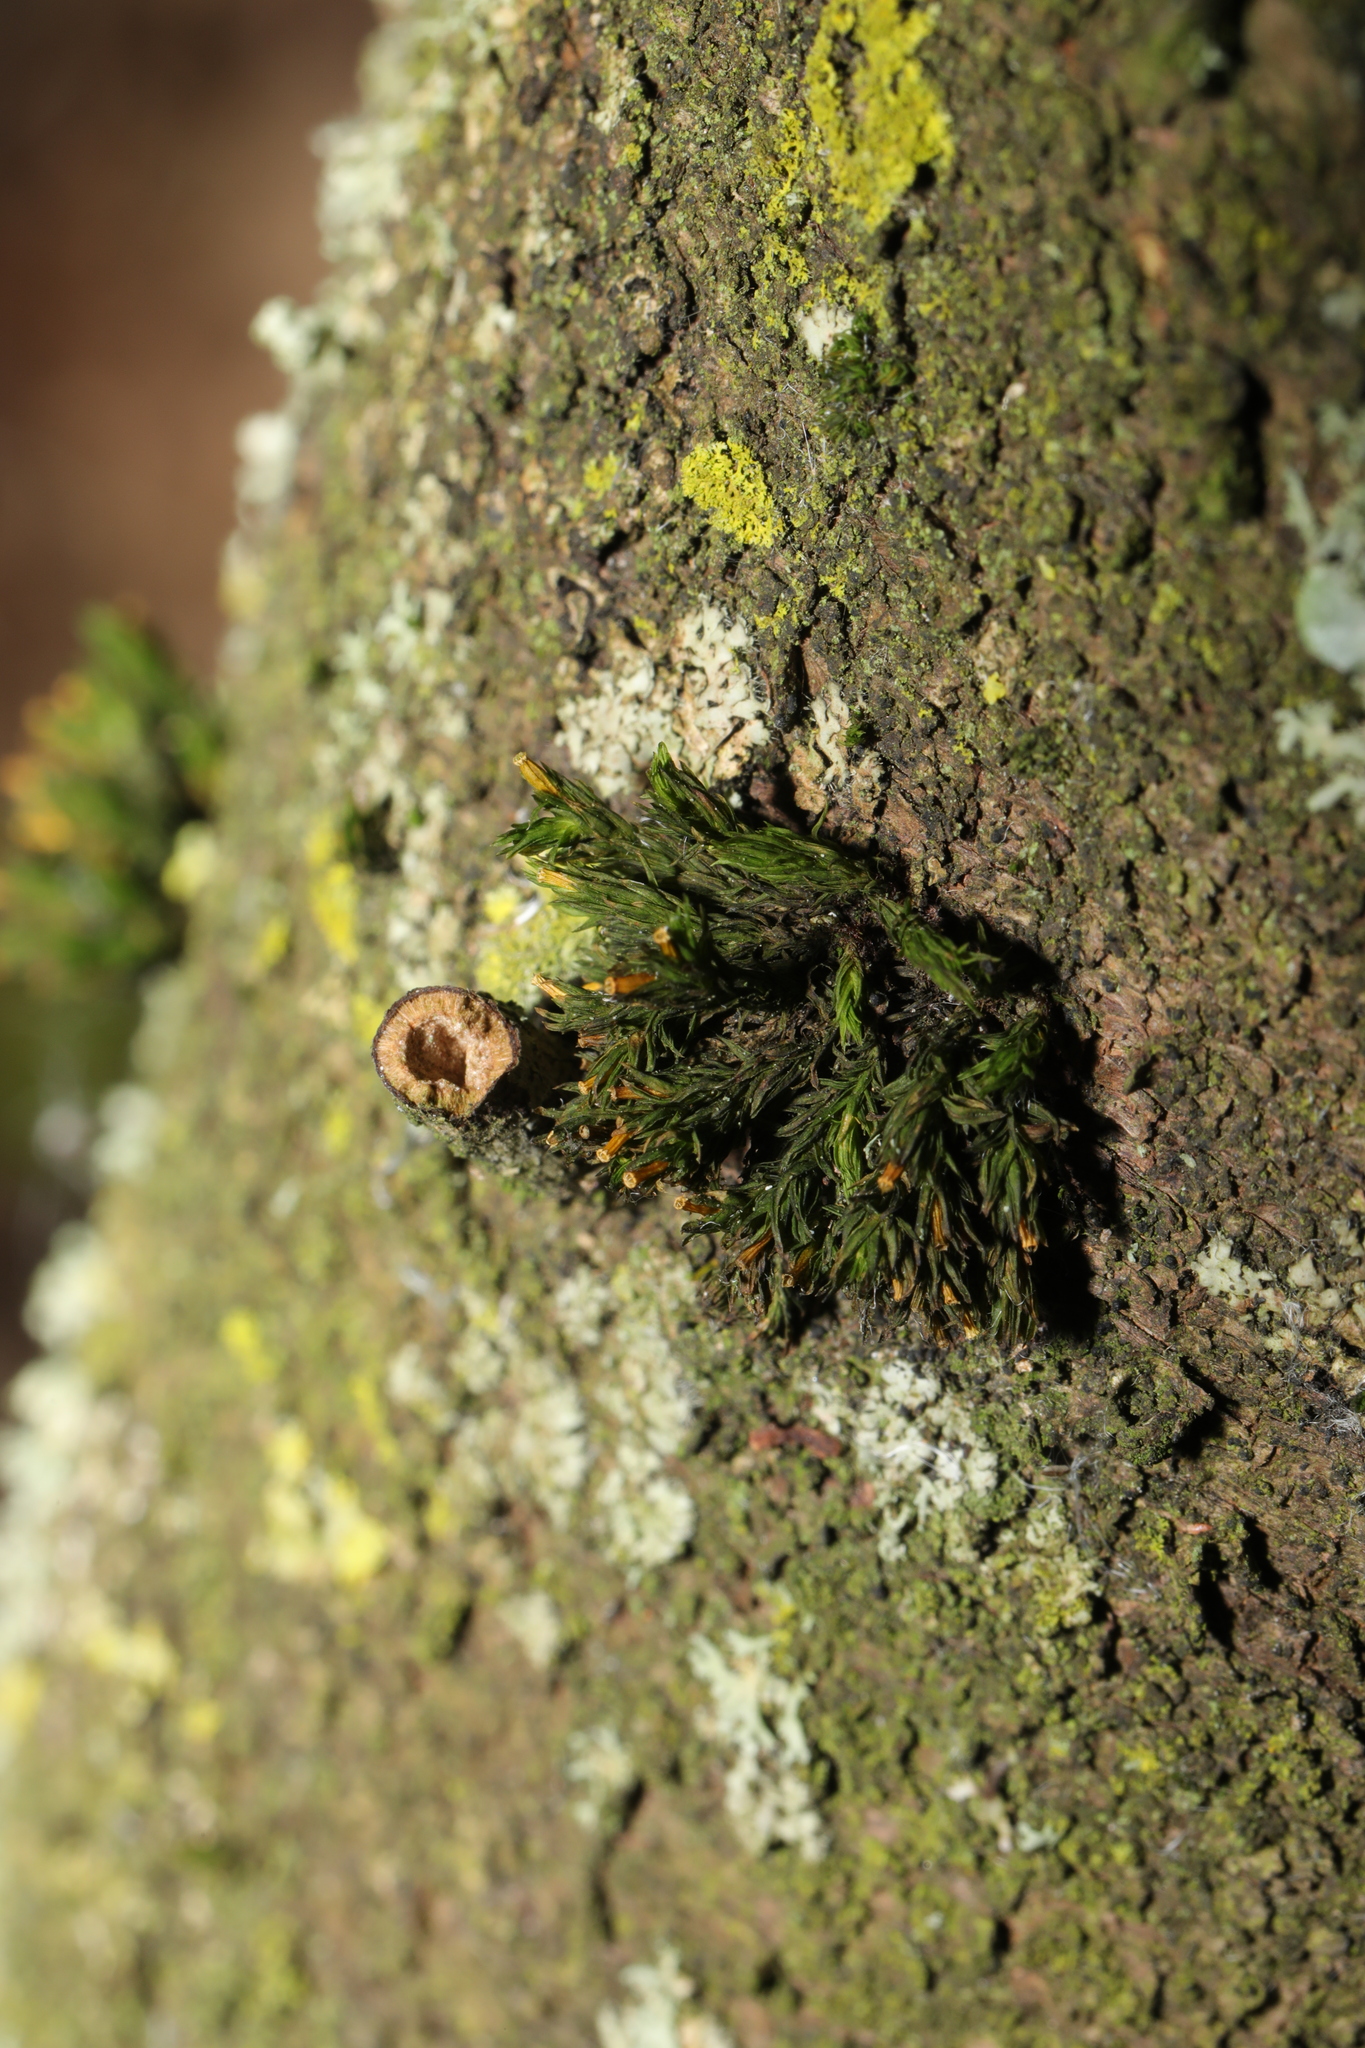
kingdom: Plantae
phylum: Bryophyta
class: Bryopsida
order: Orthotrichales
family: Orthotrichaceae
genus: Lewinskya
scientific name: Lewinskya affinis
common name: Wood bristle-moss
